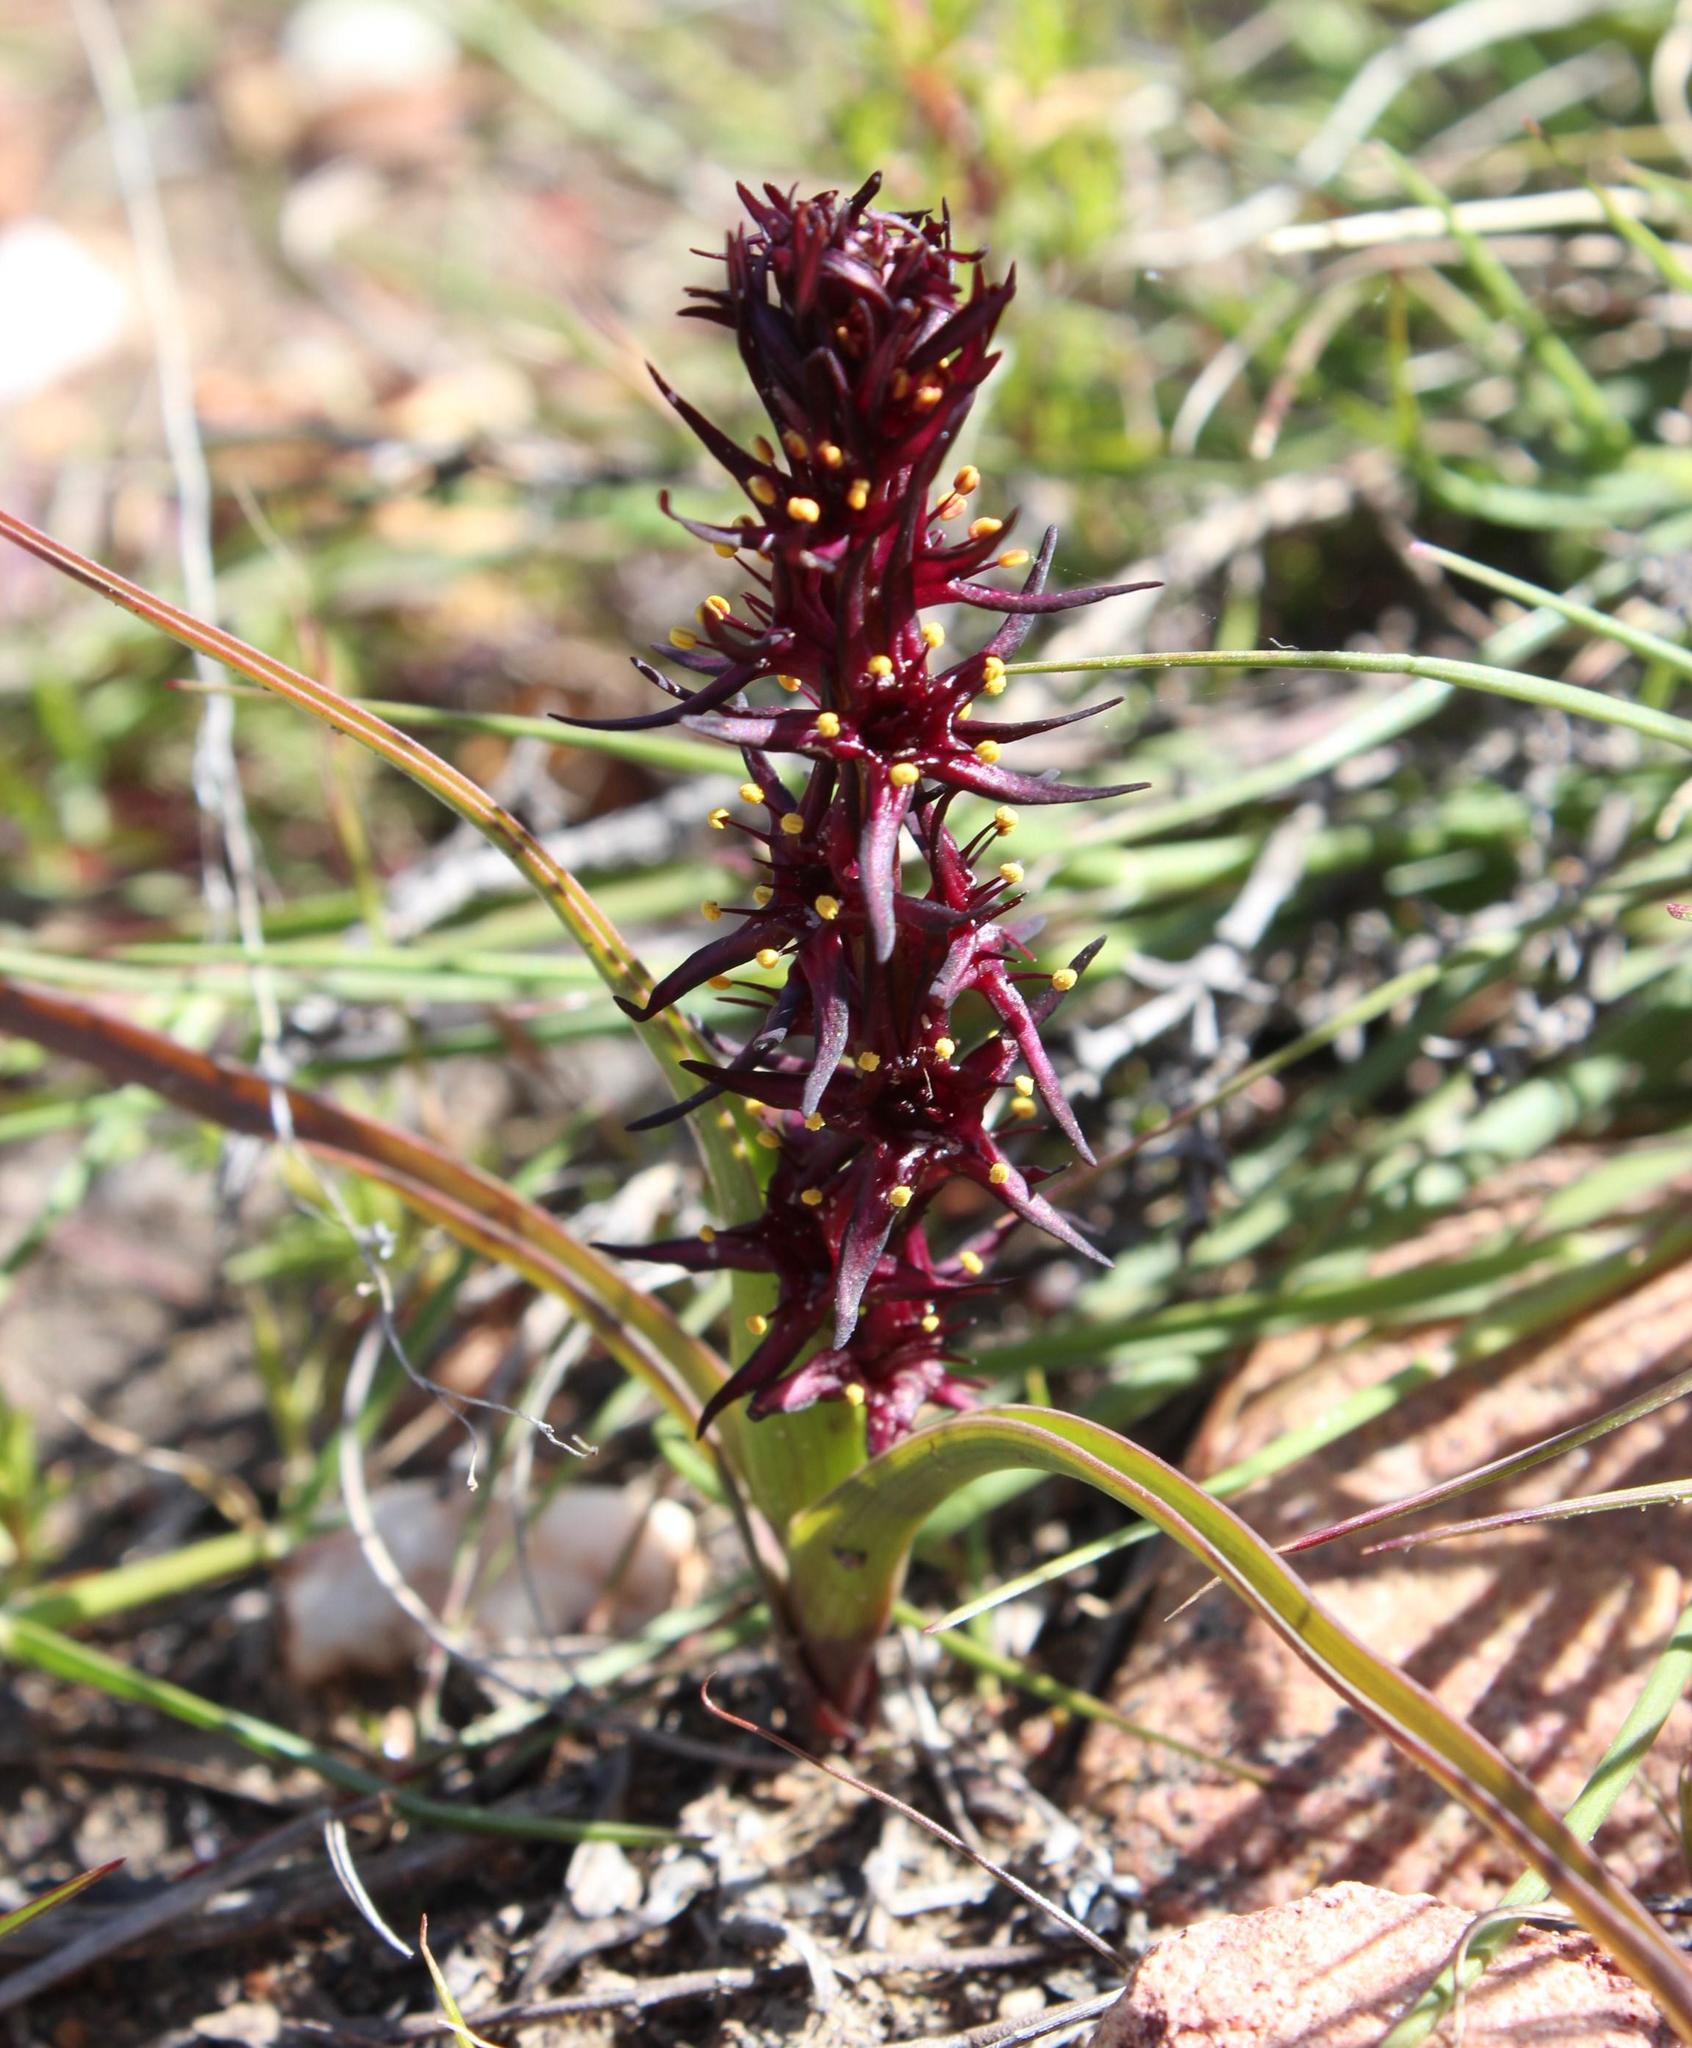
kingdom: Plantae
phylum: Tracheophyta
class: Liliopsida
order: Liliales
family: Colchicaceae
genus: Wurmbea
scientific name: Wurmbea marginata
